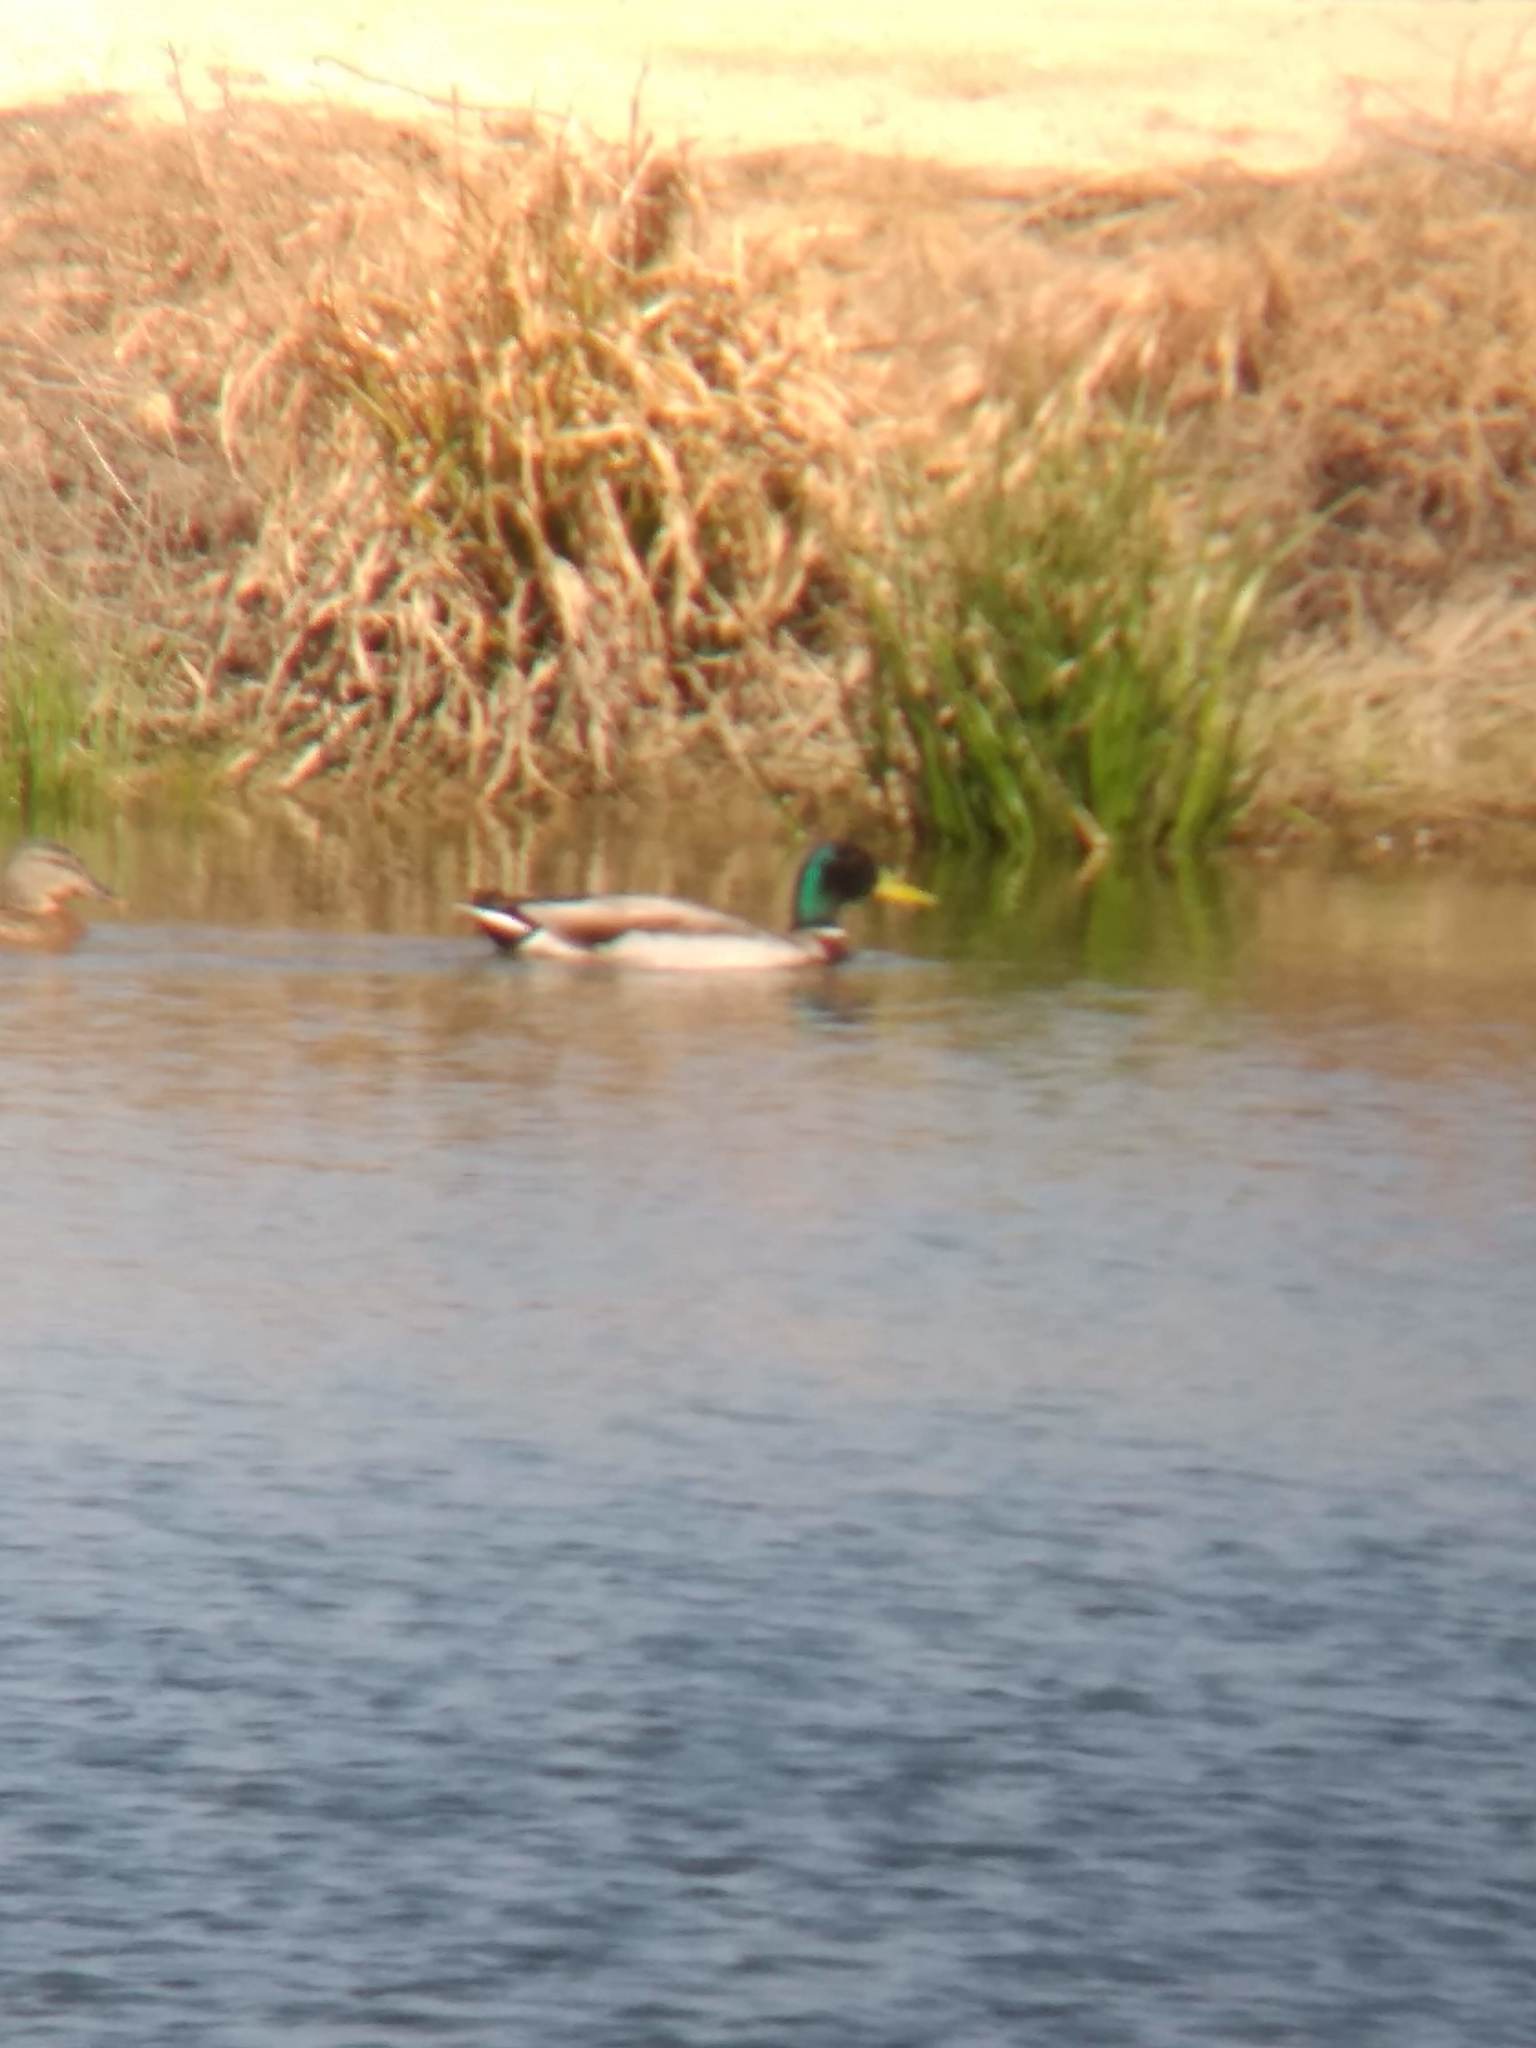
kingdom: Animalia
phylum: Chordata
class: Aves
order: Anseriformes
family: Anatidae
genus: Anas
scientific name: Anas platyrhynchos
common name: Mallard
